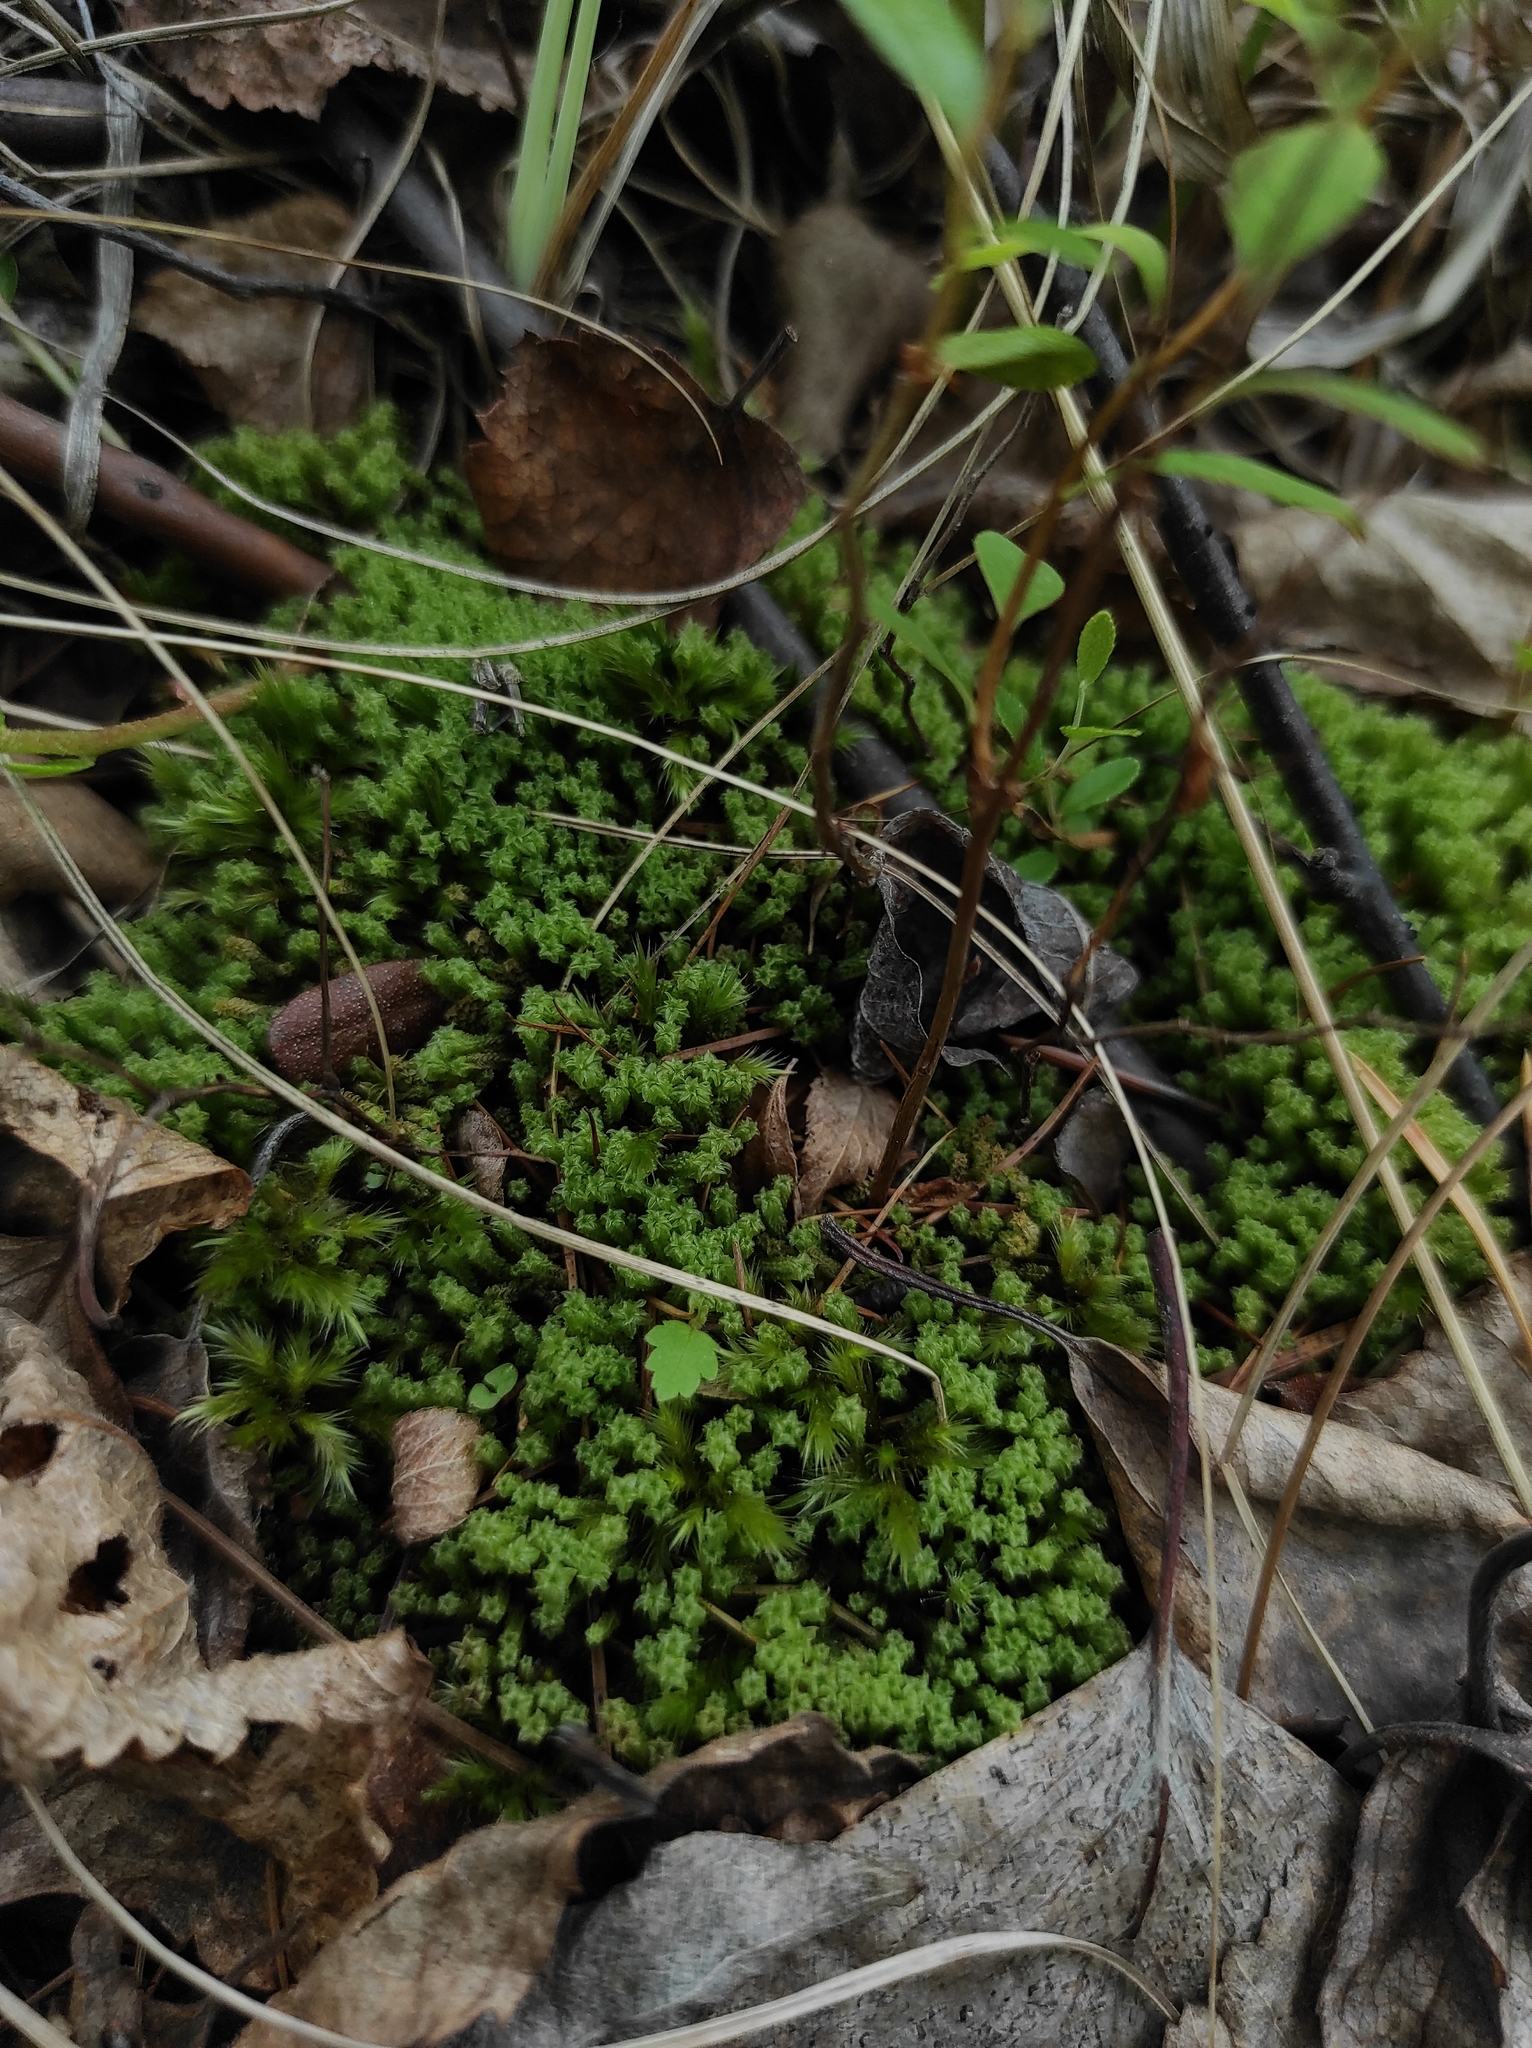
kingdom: Plantae
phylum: Bryophyta
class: Bryopsida
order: Splachnales
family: Meesiaceae
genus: Paludella
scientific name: Paludella squarrosa
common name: Tufted fen moss
